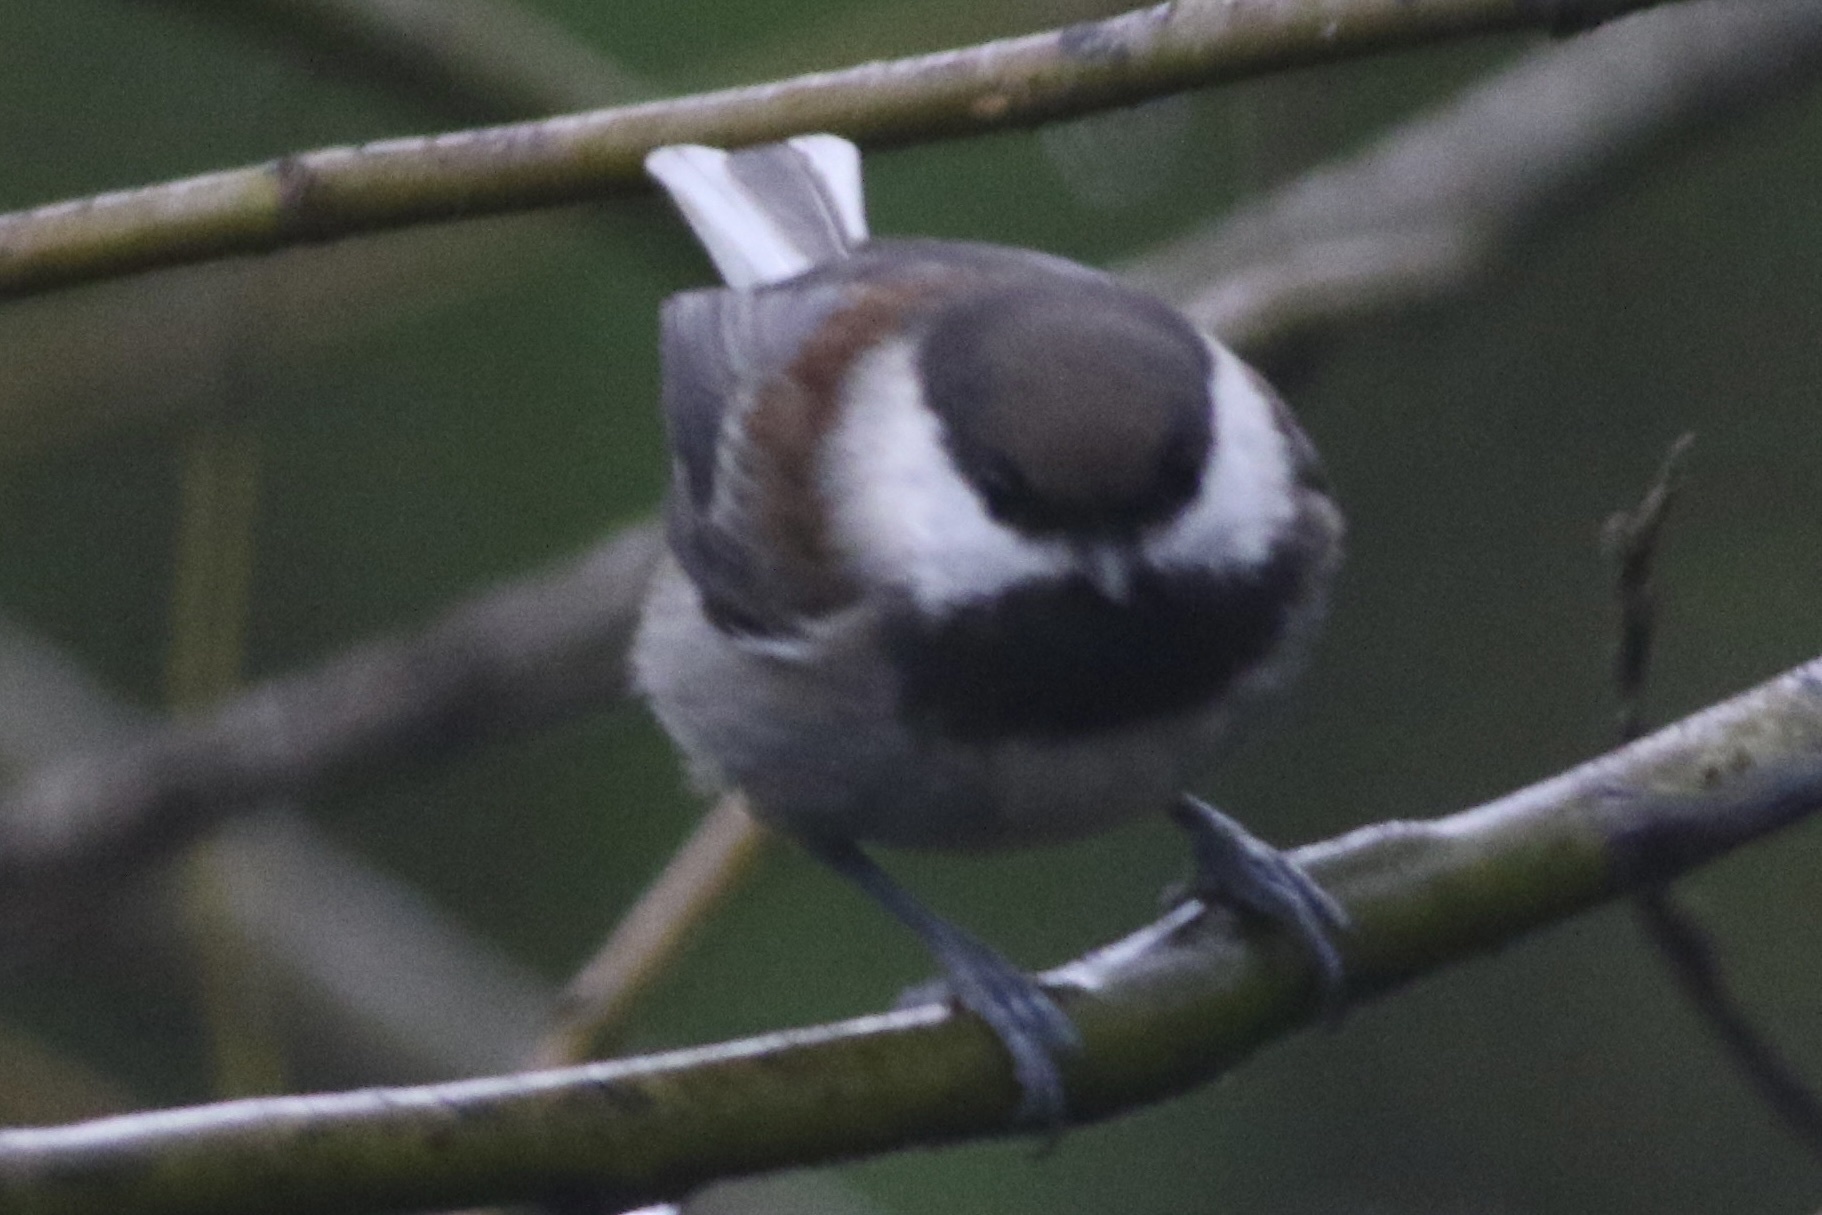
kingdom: Animalia
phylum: Chordata
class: Aves
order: Passeriformes
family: Paridae
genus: Poecile
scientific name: Poecile rufescens
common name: Chestnut-backed chickadee
